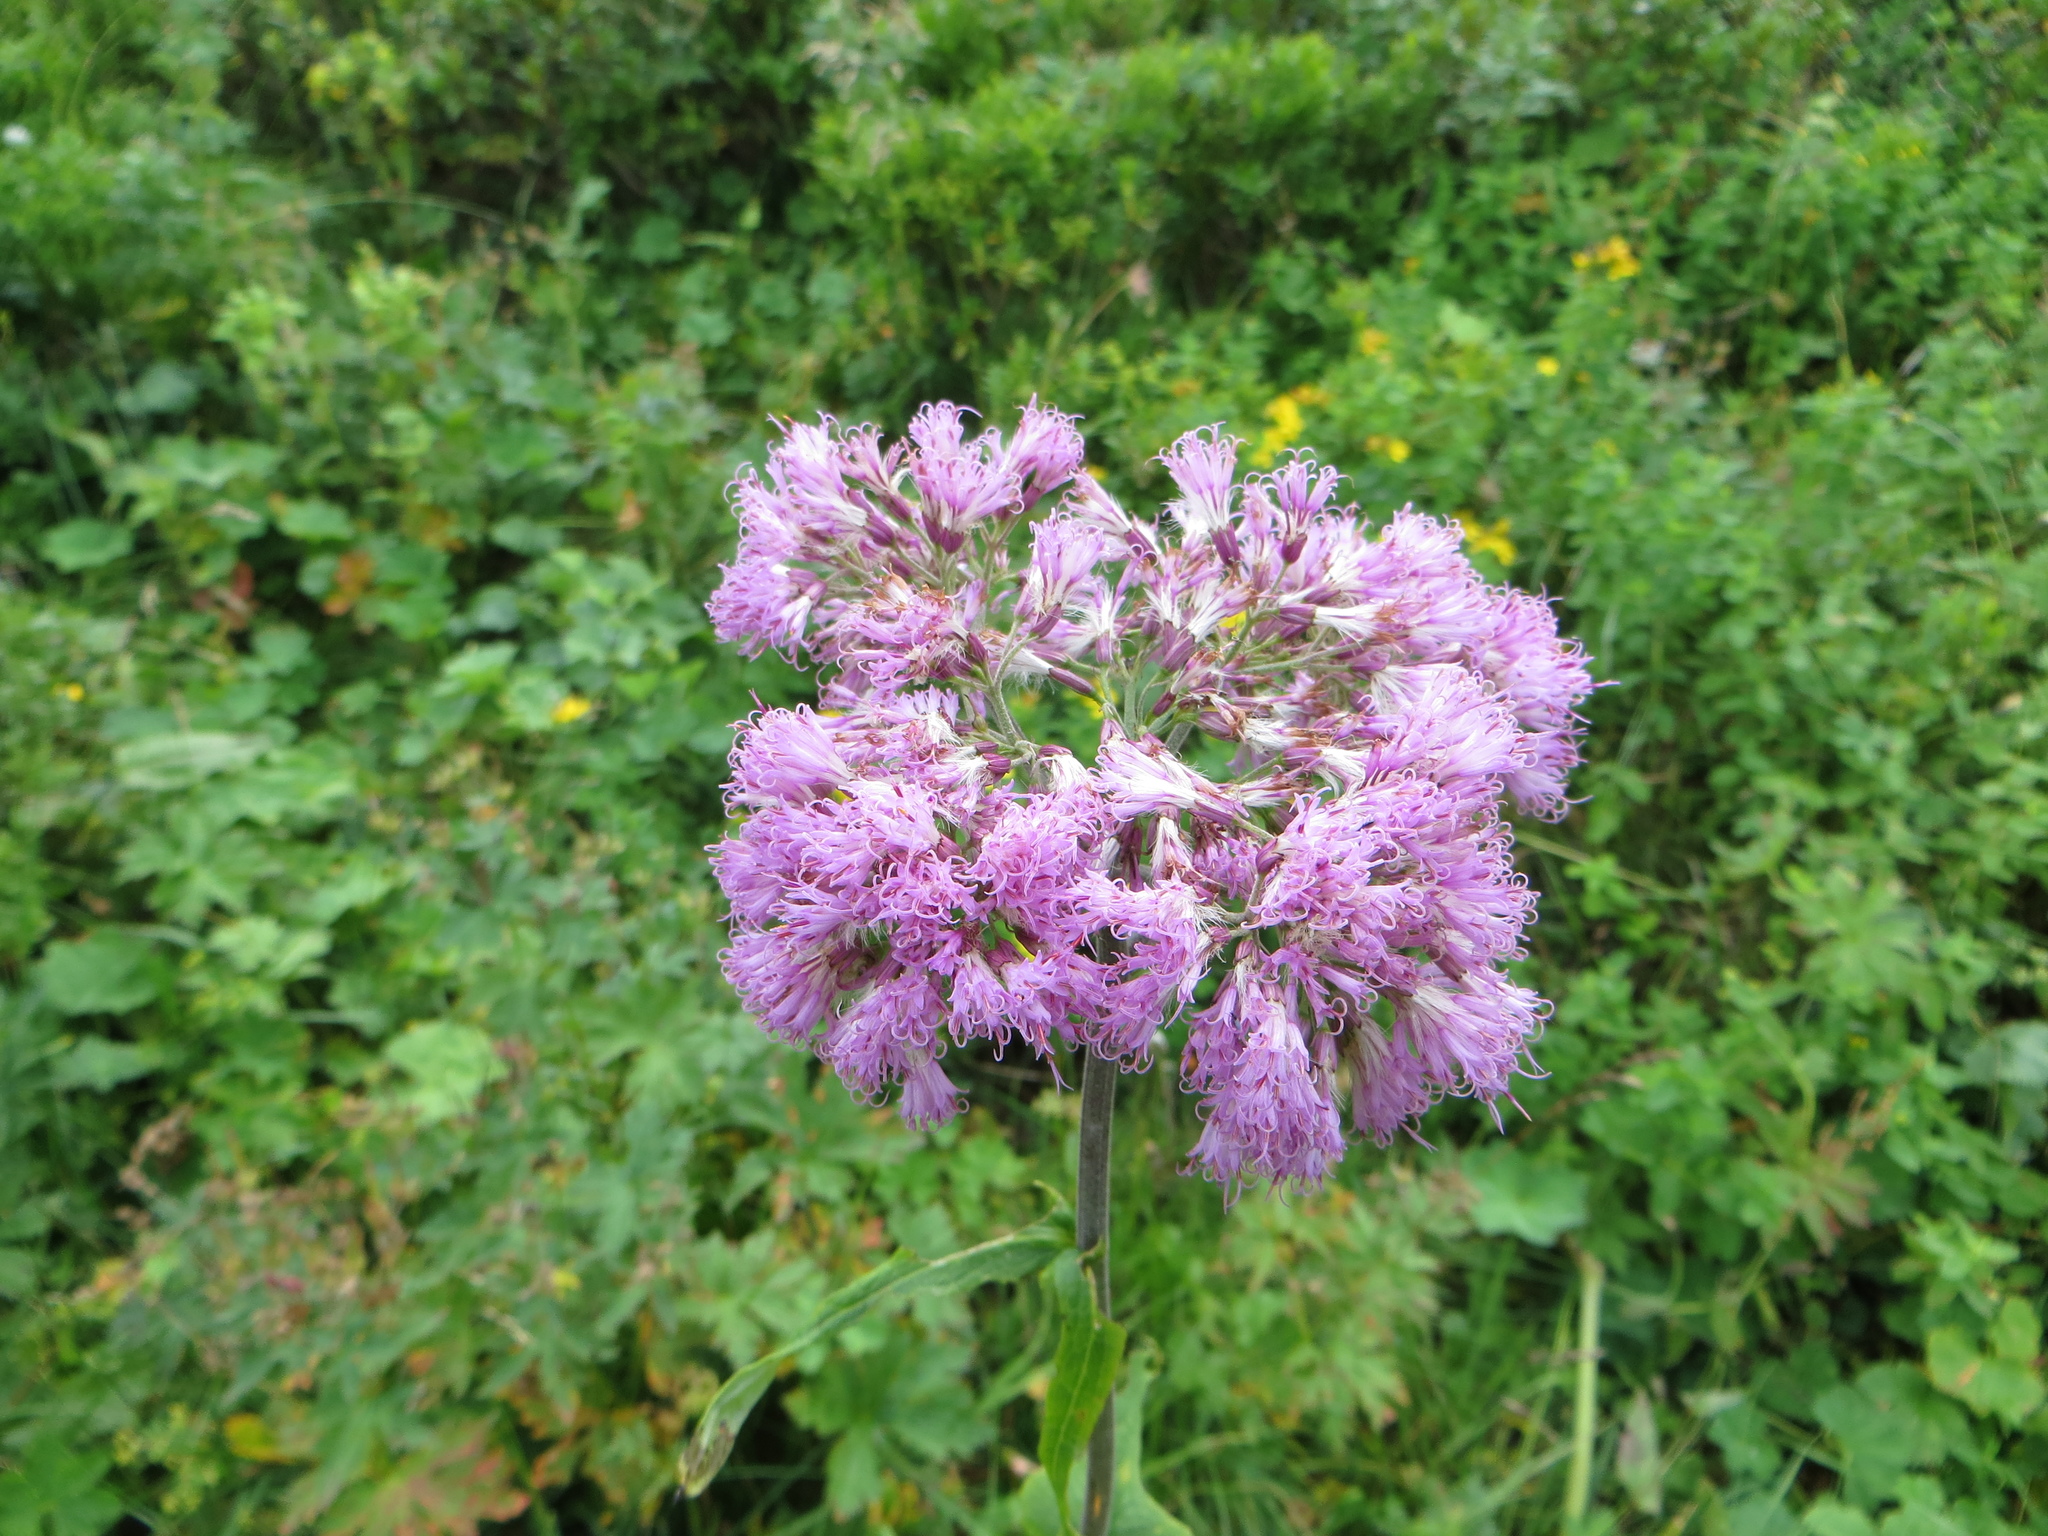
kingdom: Plantae
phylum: Tracheophyta
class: Magnoliopsida
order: Asterales
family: Asteraceae
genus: Adenostyles
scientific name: Adenostyles alliariae
